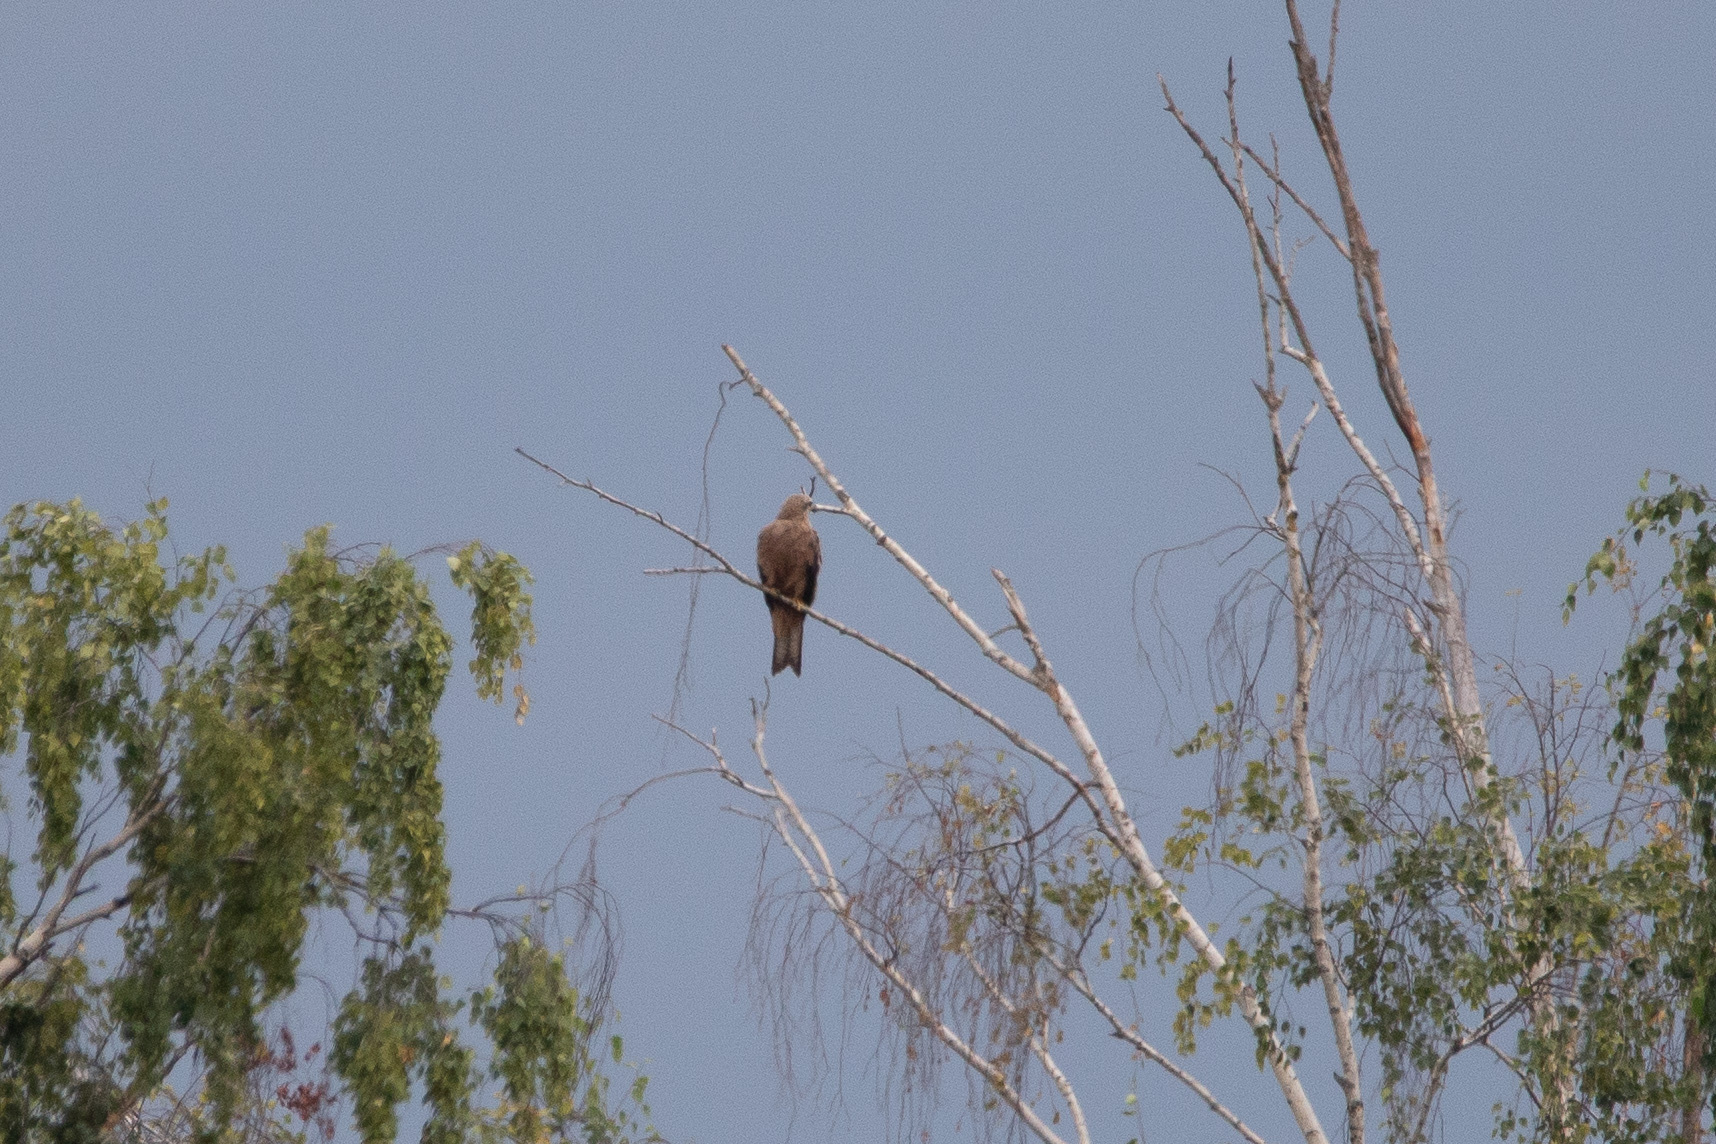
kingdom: Animalia
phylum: Chordata
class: Aves
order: Accipitriformes
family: Accipitridae
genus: Milvus
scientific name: Milvus migrans
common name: Black kite
